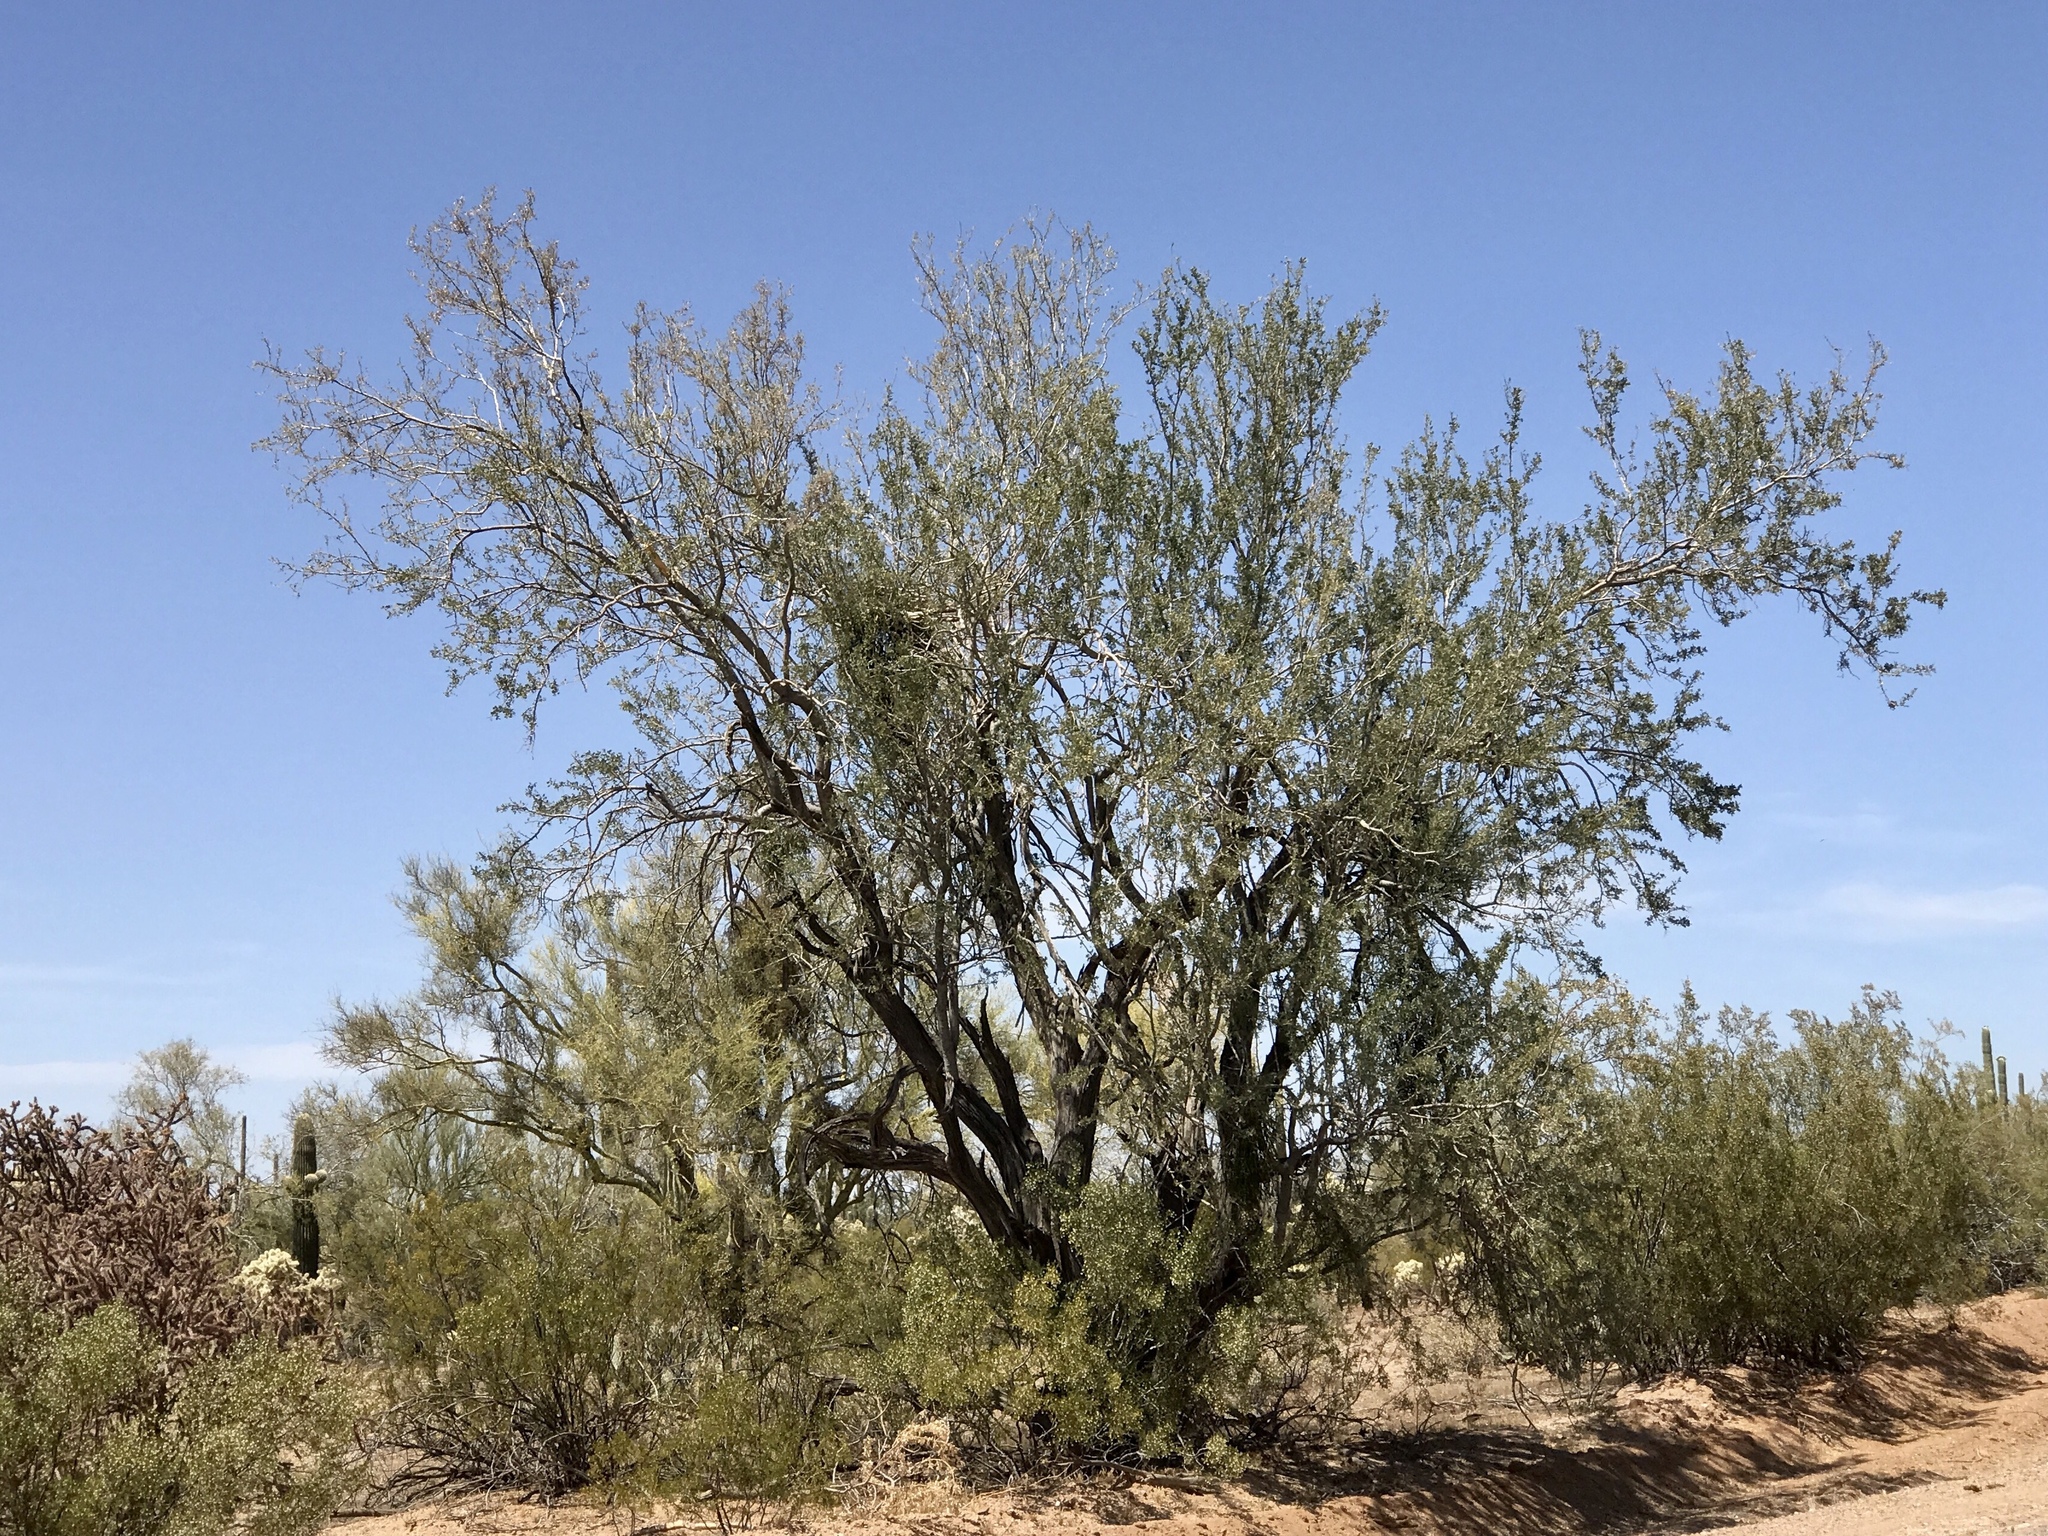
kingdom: Plantae
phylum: Tracheophyta
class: Magnoliopsida
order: Fabales
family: Fabaceae
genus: Olneya
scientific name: Olneya tesota
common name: Desert ironwood
